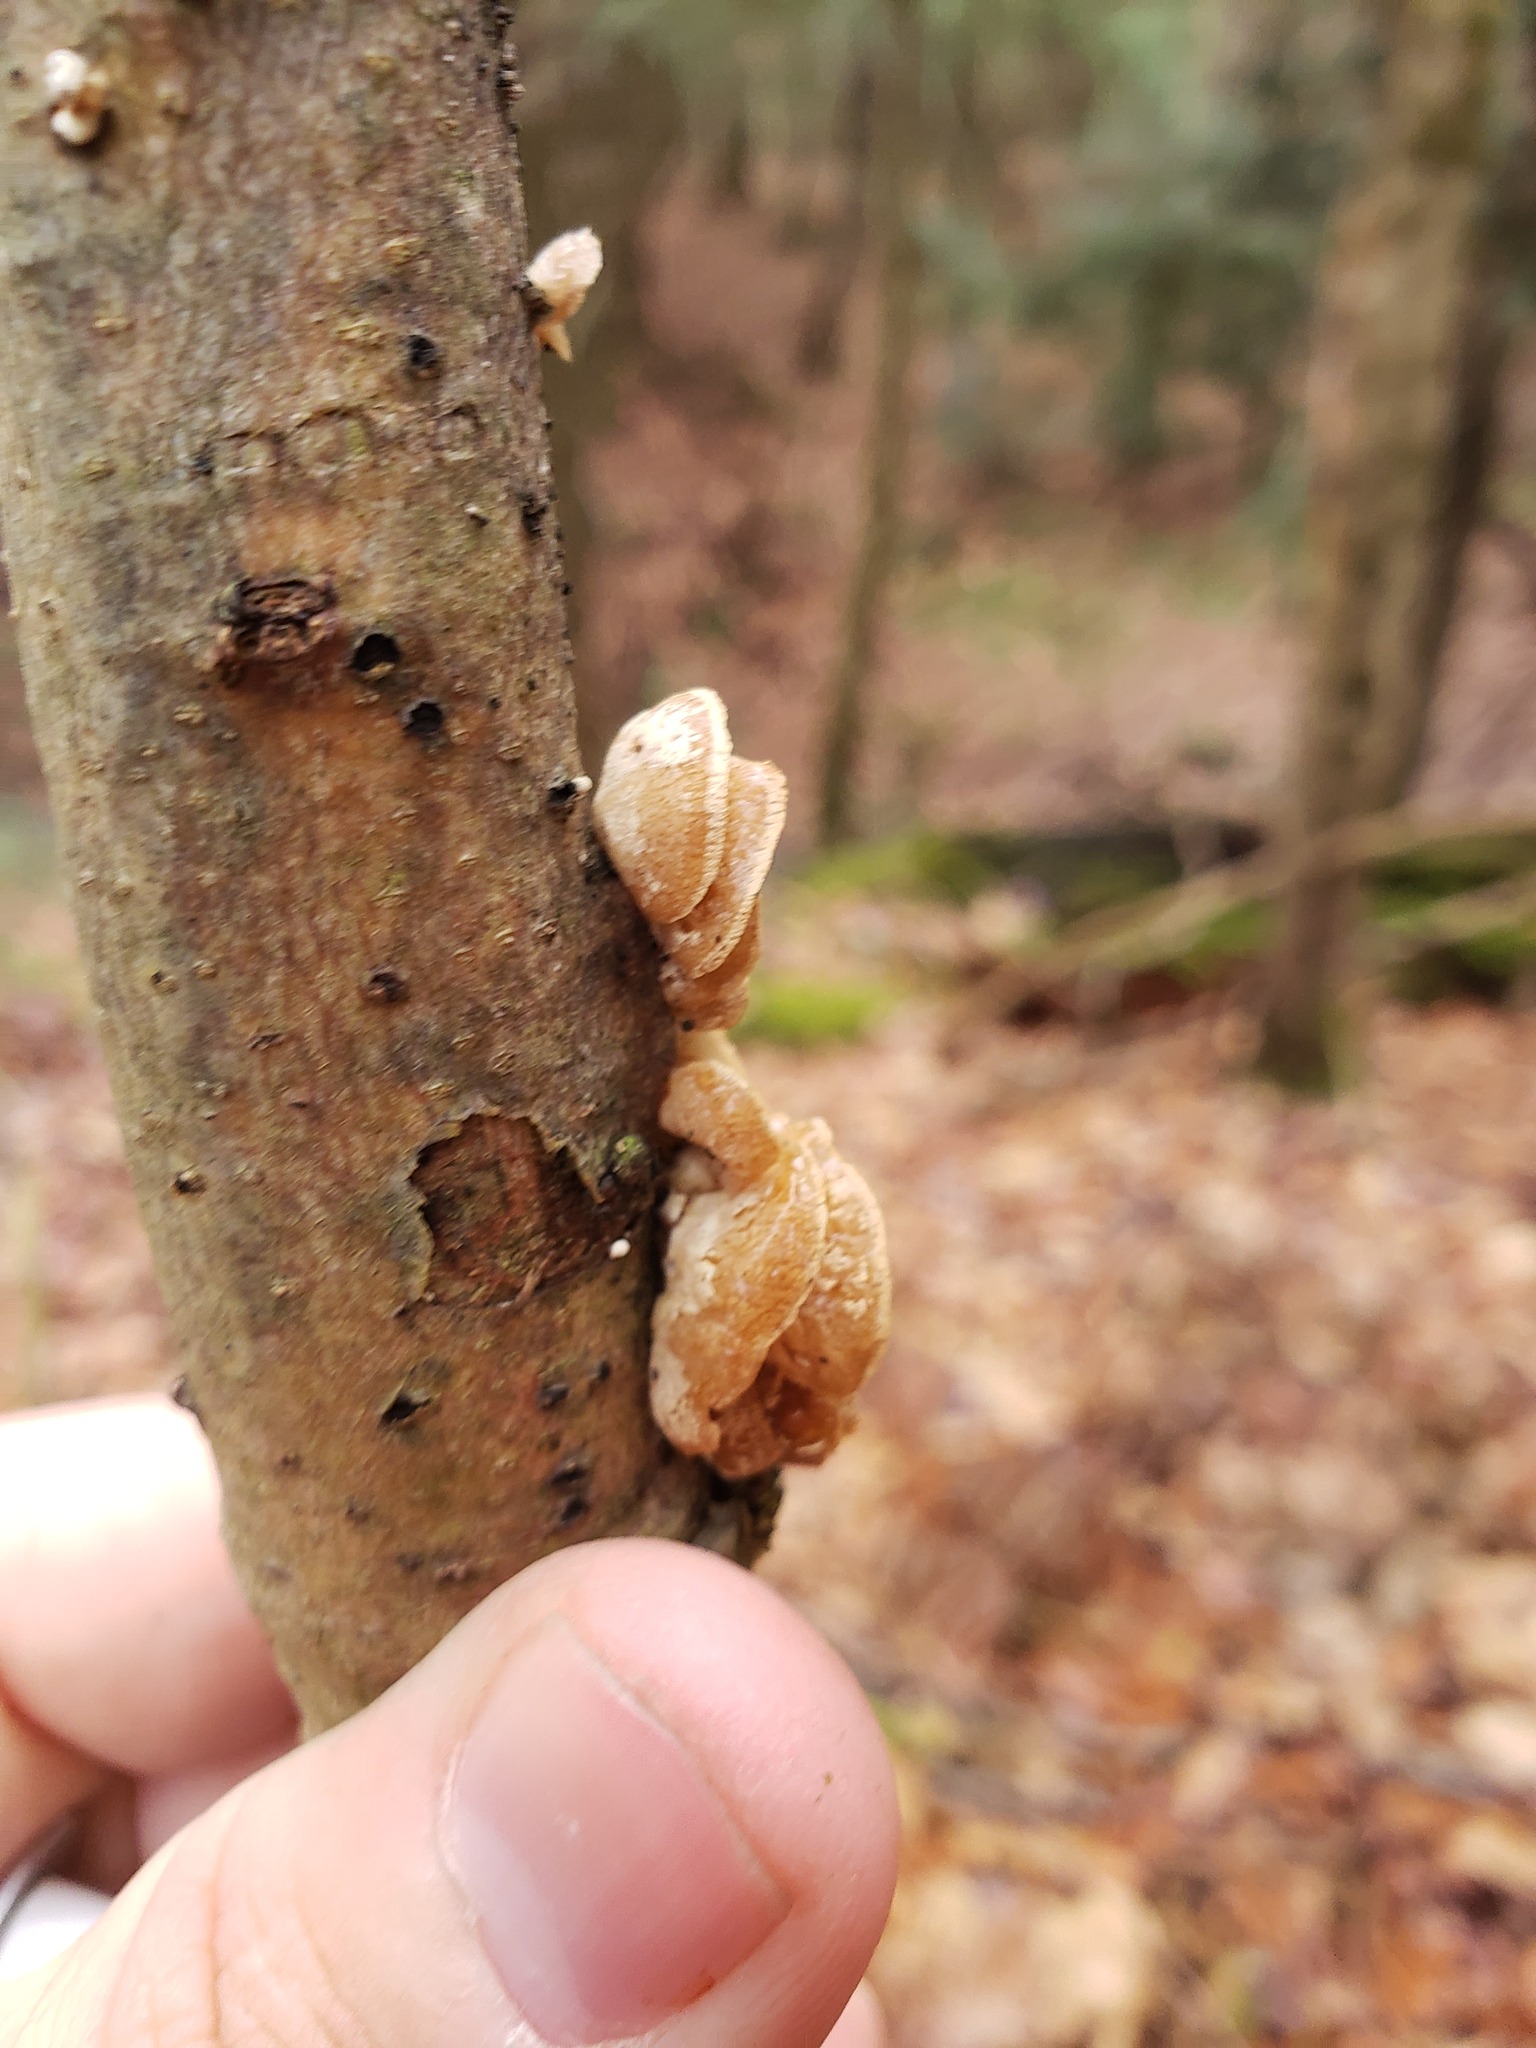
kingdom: Fungi
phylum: Basidiomycota
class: Agaricomycetes
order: Agaricales
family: Mycenaceae
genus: Panellus
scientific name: Panellus stipticus
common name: Bitter oysterling
